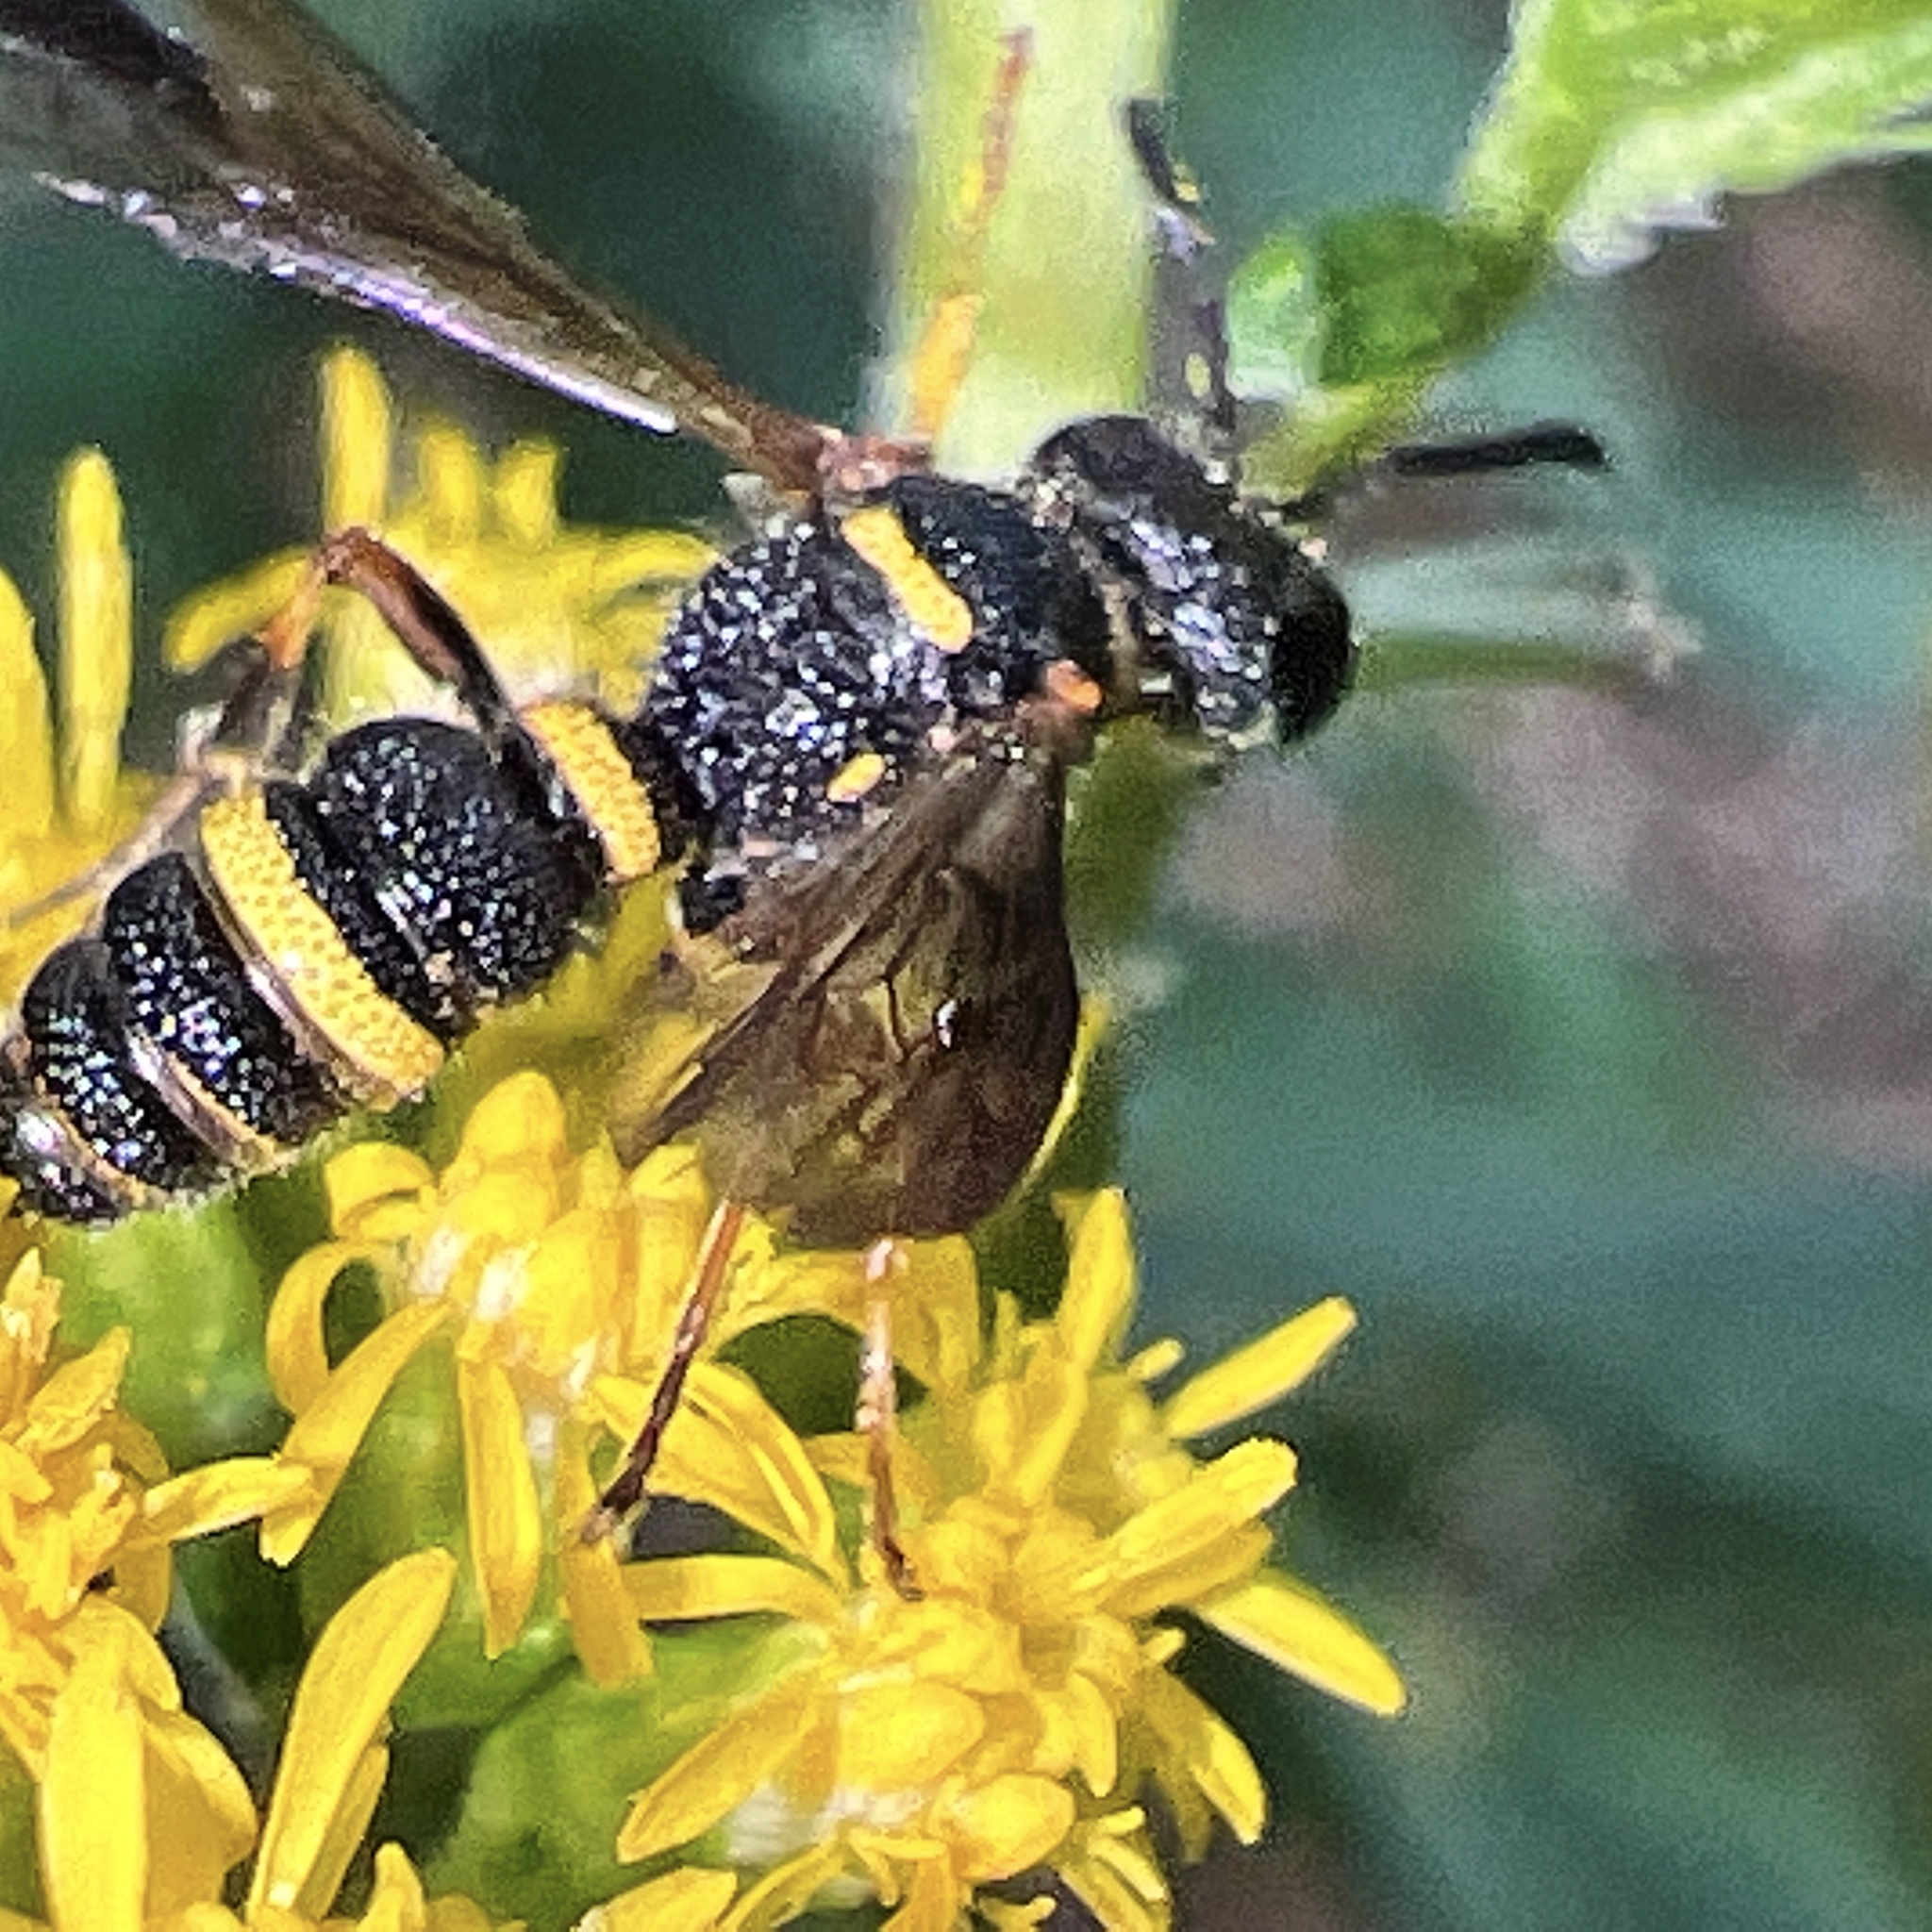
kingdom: Animalia
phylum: Arthropoda
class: Insecta
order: Hymenoptera
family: Crabronidae
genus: Cerceris
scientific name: Cerceris insolita
